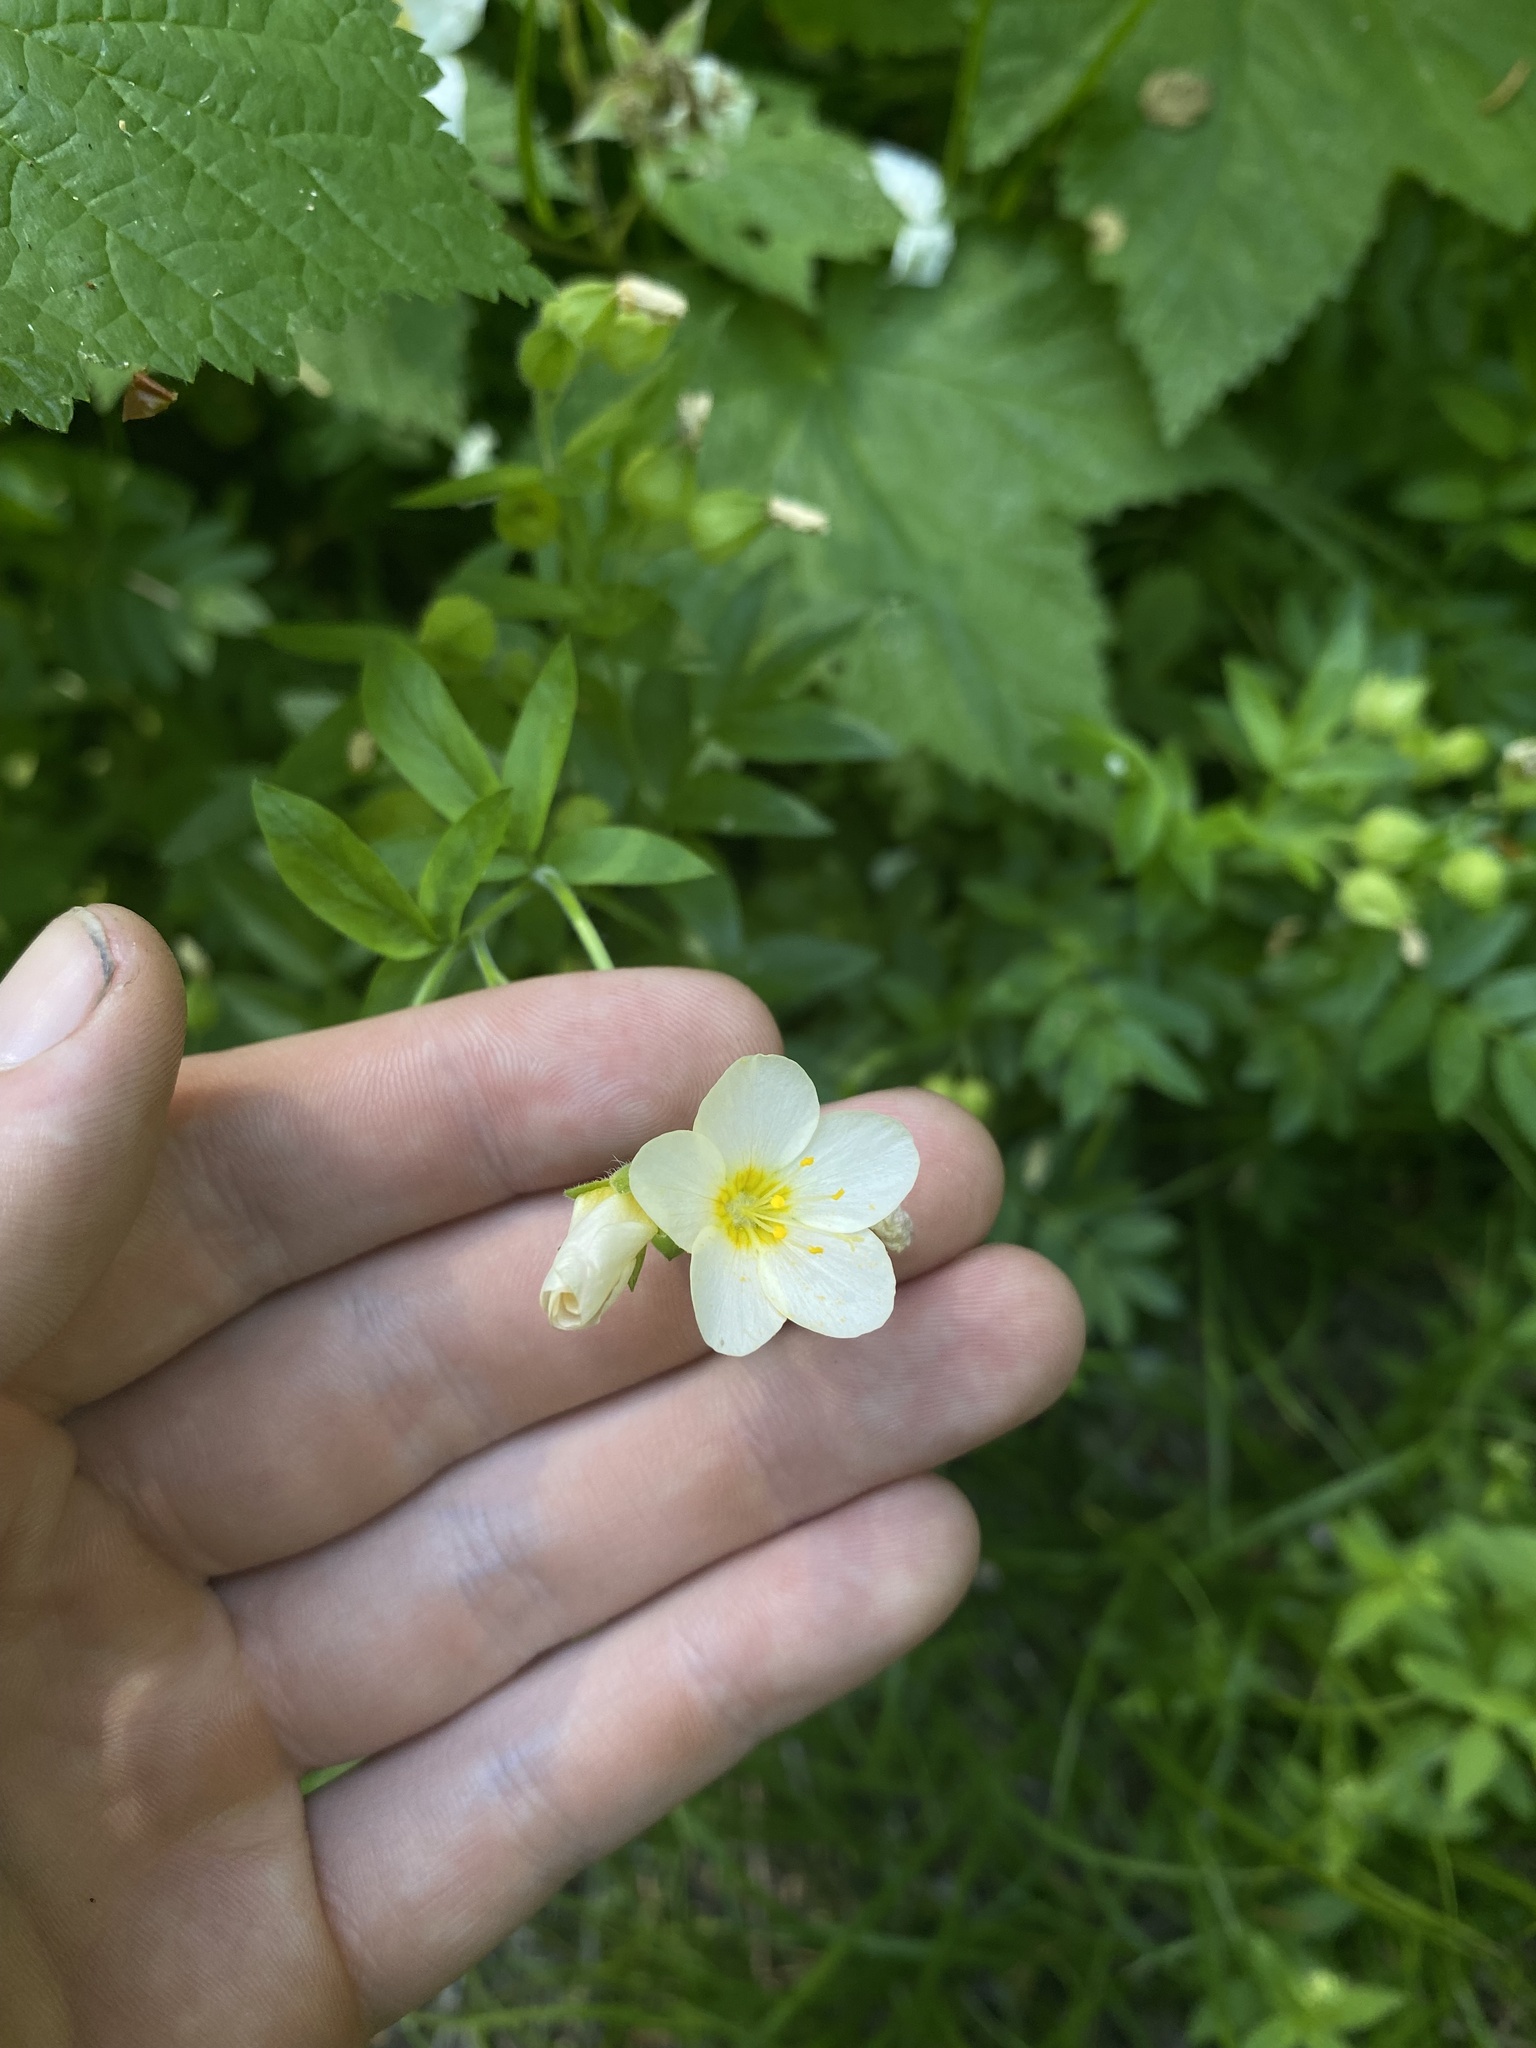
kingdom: Plantae
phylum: Tracheophyta
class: Magnoliopsida
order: Ericales
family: Polemoniaceae
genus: Polemonium
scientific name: Polemonium carneum
